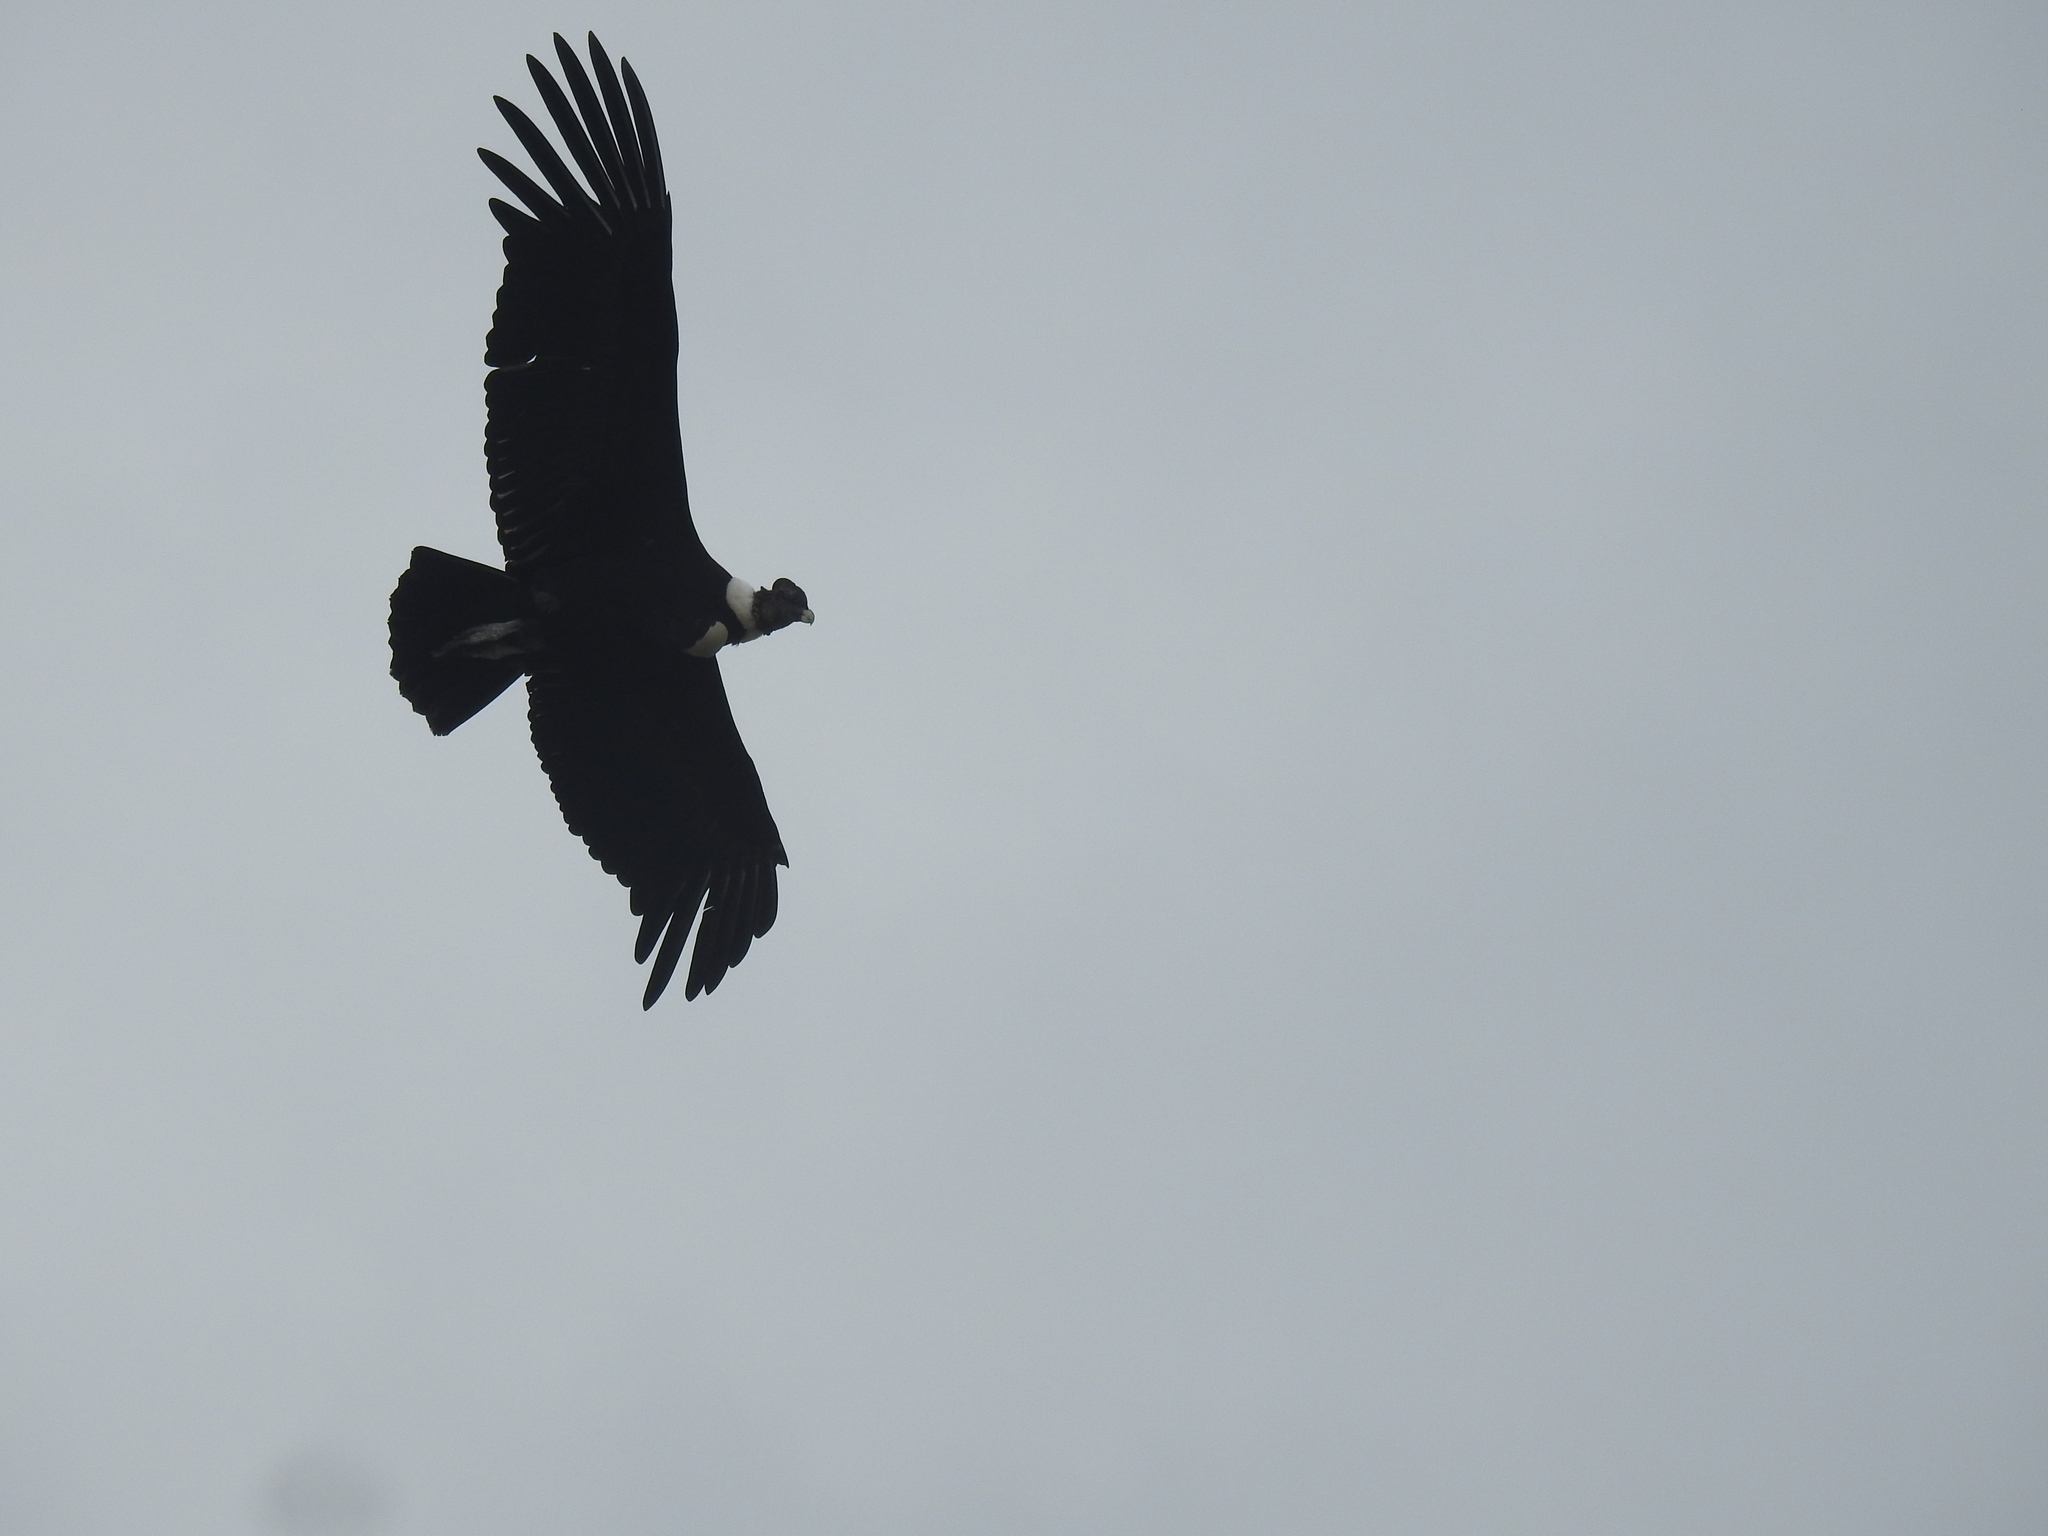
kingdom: Animalia
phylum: Chordata
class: Aves
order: Accipitriformes
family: Cathartidae
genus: Vultur
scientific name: Vultur gryphus
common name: Andean condor
